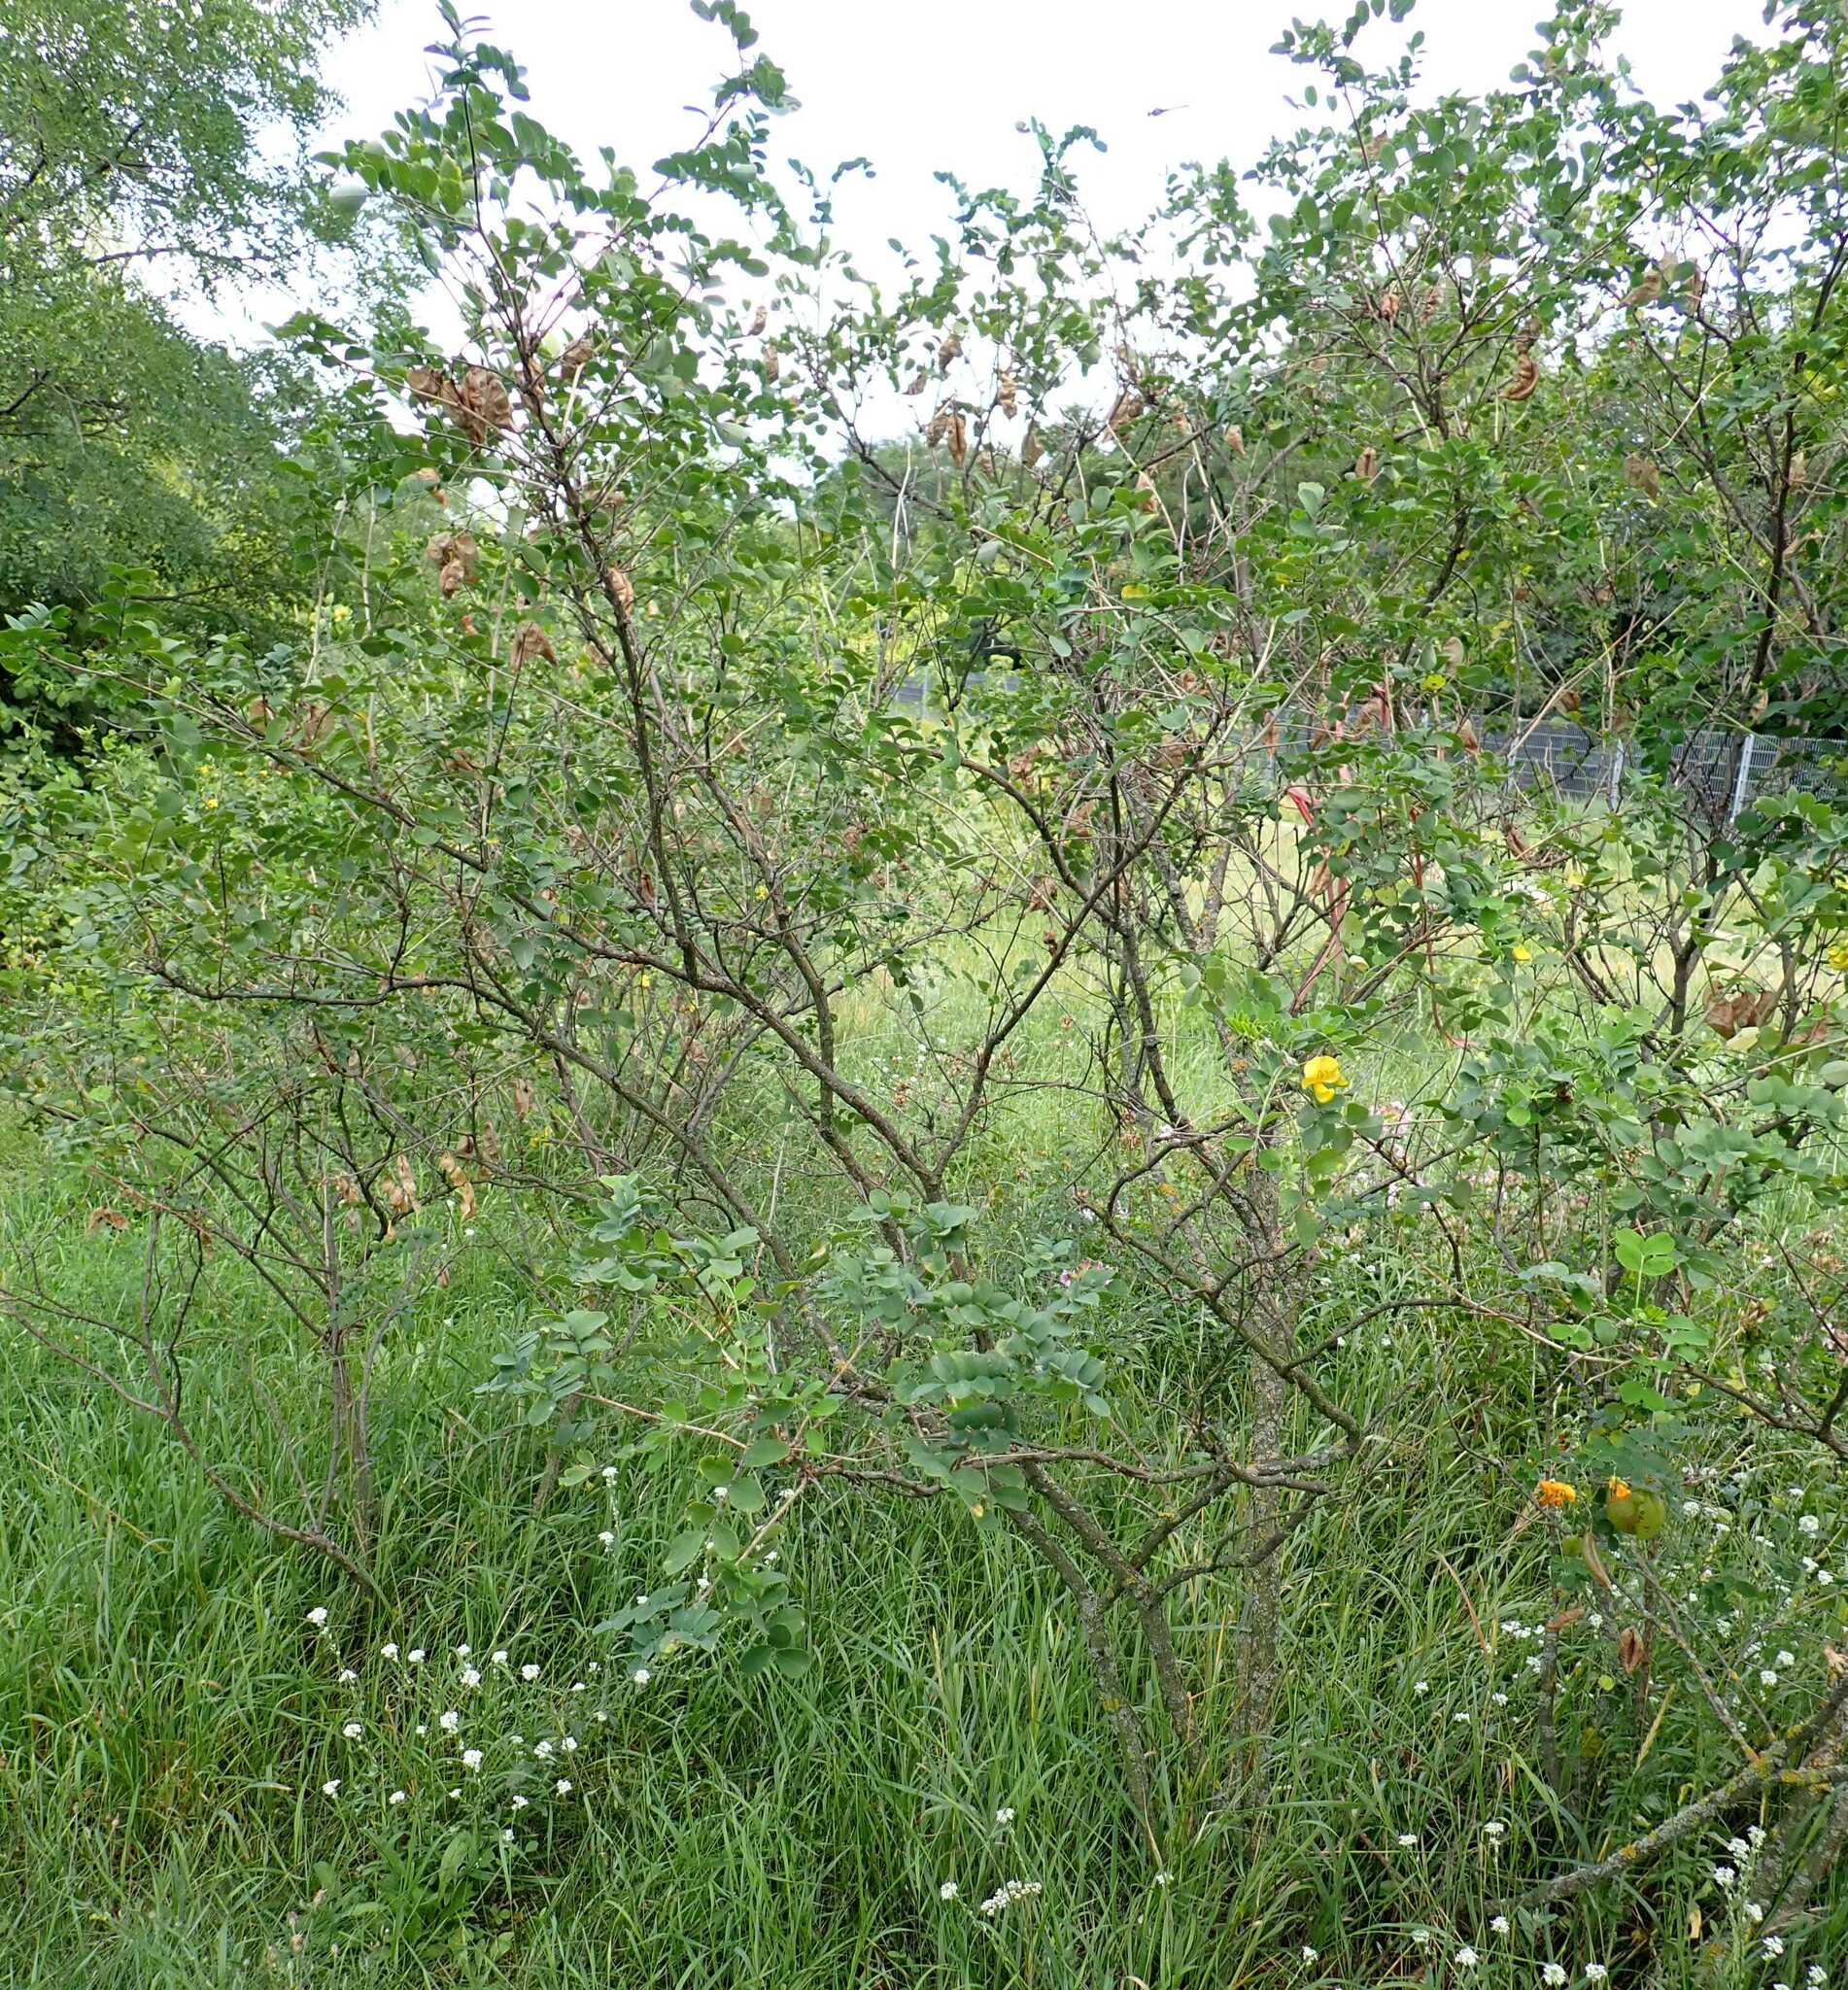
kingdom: Plantae
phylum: Tracheophyta
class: Magnoliopsida
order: Fabales
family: Fabaceae
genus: Colutea
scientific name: Colutea arborescens
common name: Bladder-senna
